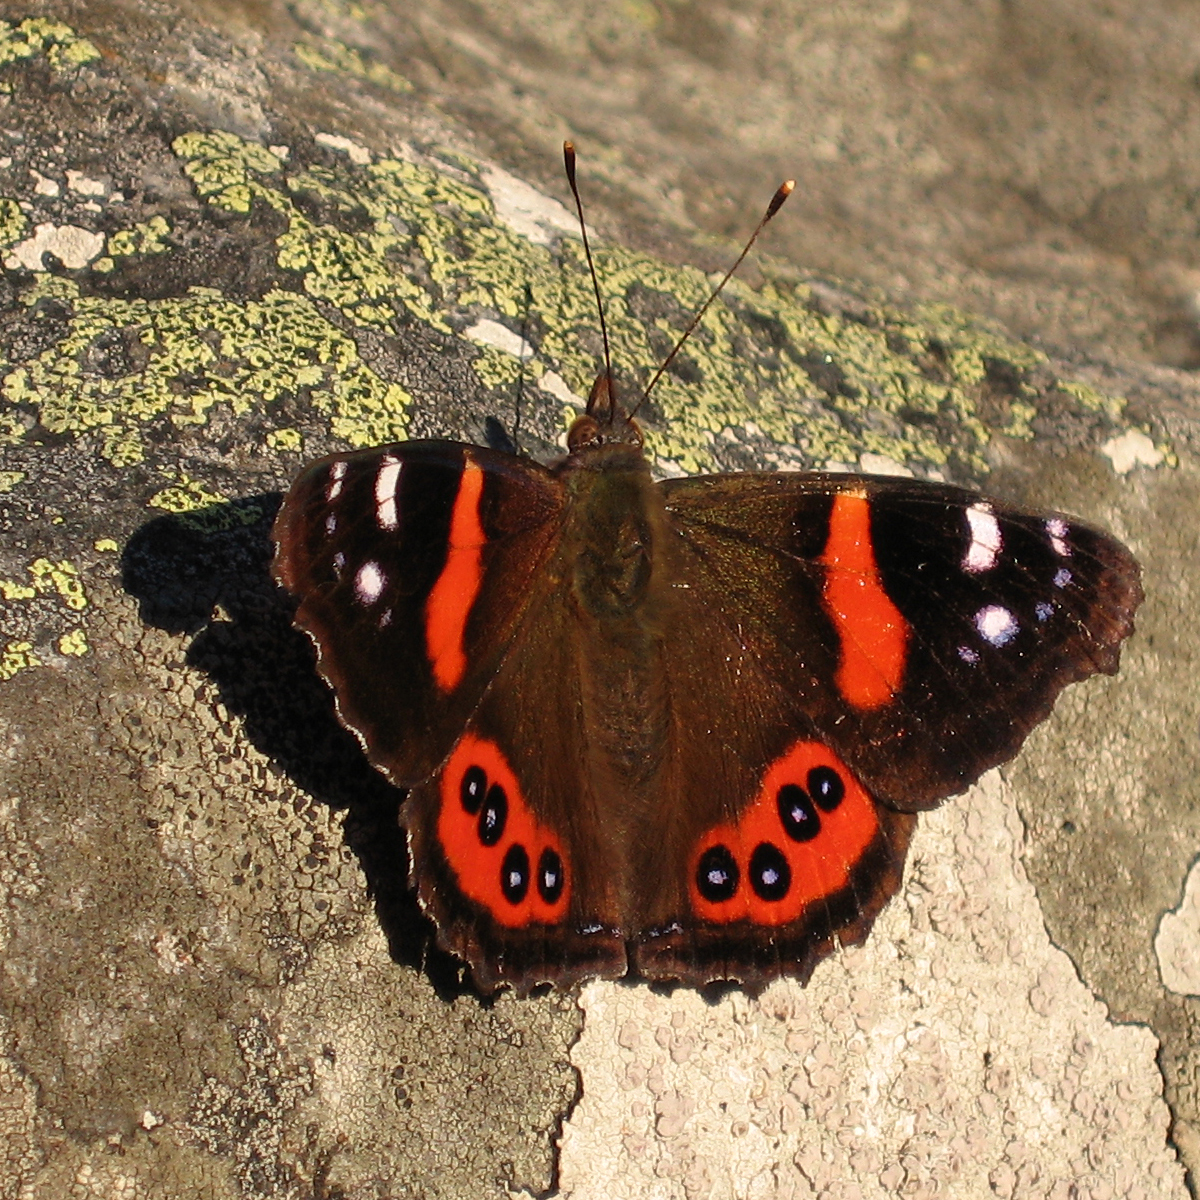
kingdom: Animalia
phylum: Arthropoda
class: Insecta
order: Lepidoptera
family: Nymphalidae
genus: Vanessa
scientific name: Vanessa gonerilla
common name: New zealand red admiral
